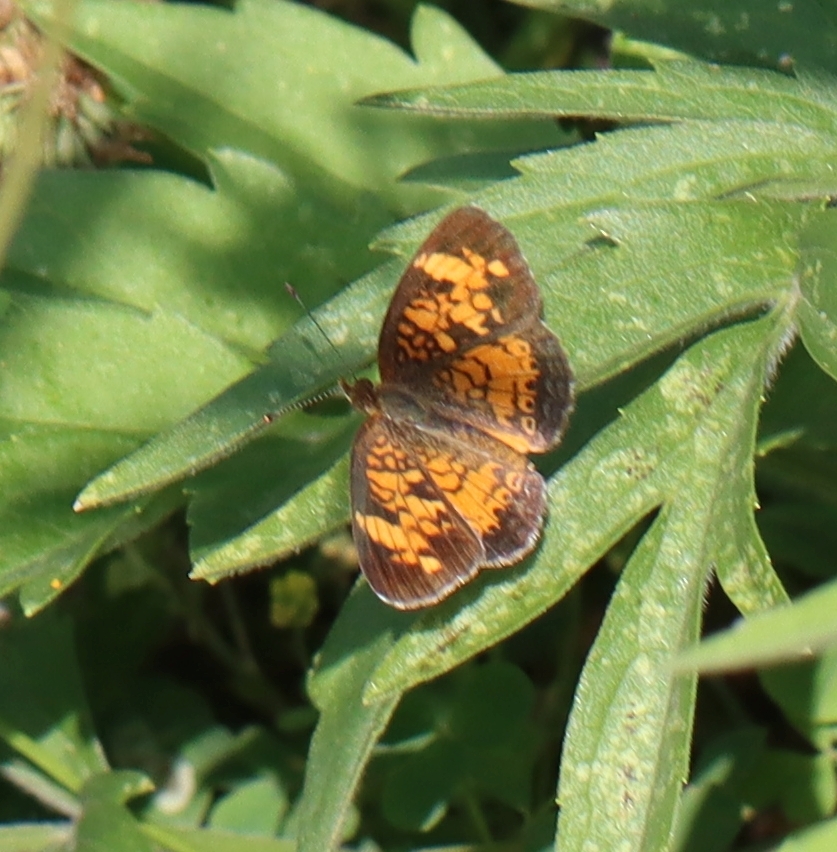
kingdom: Animalia
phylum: Arthropoda
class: Insecta
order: Lepidoptera
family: Nymphalidae
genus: Phyciodes
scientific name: Phyciodes tharos
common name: Pearl crescent
